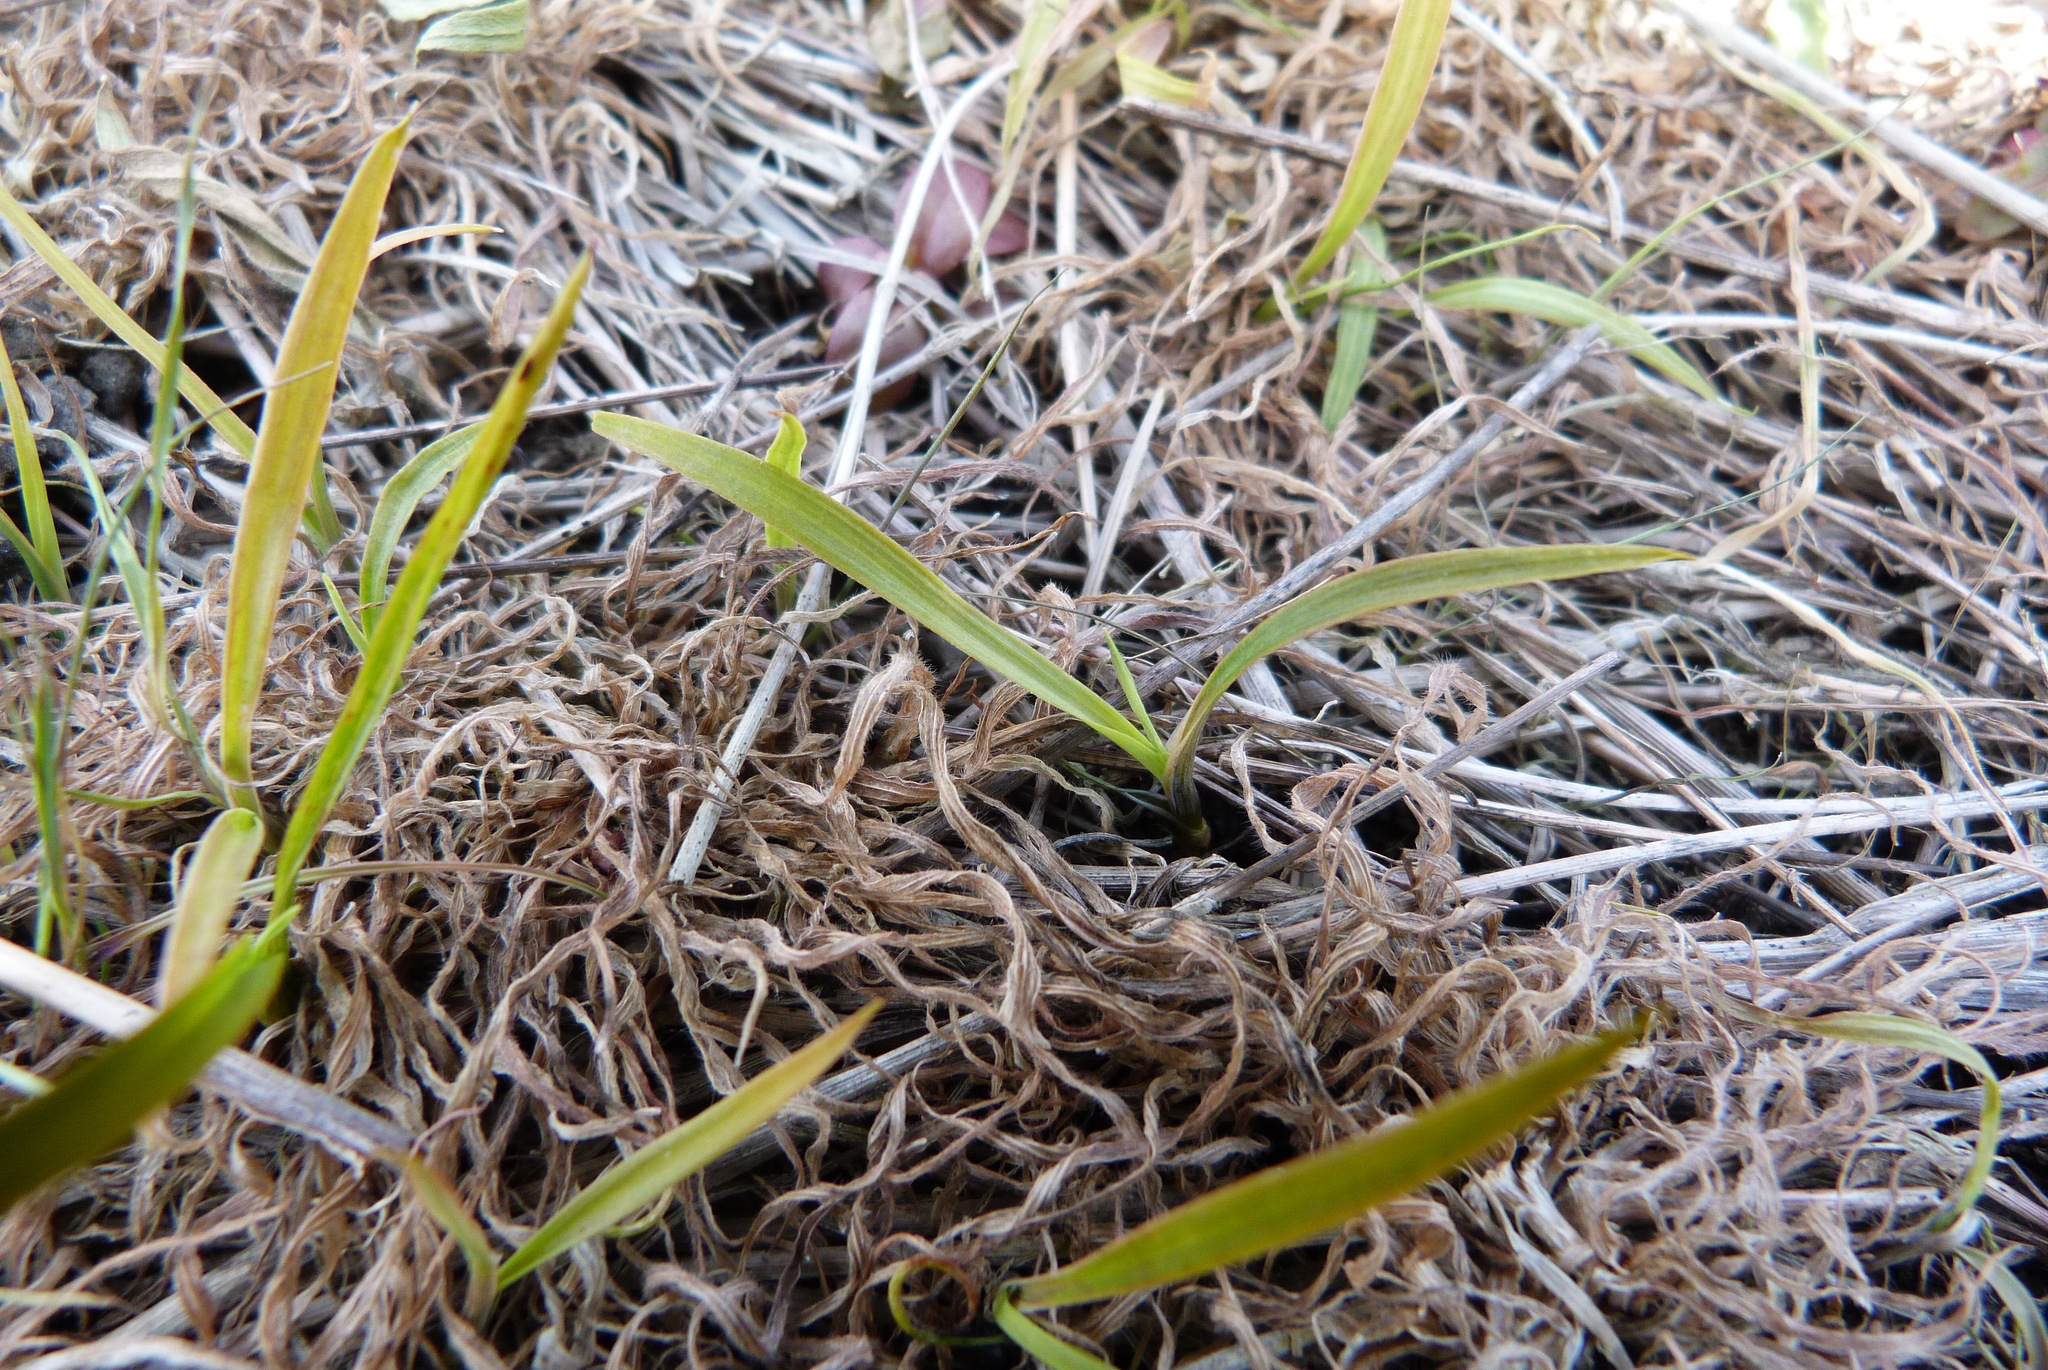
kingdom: Plantae
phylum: Tracheophyta
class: Liliopsida
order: Asparagales
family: Asparagaceae
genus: Cordyline
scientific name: Cordyline australis
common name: Cabbage-palm
